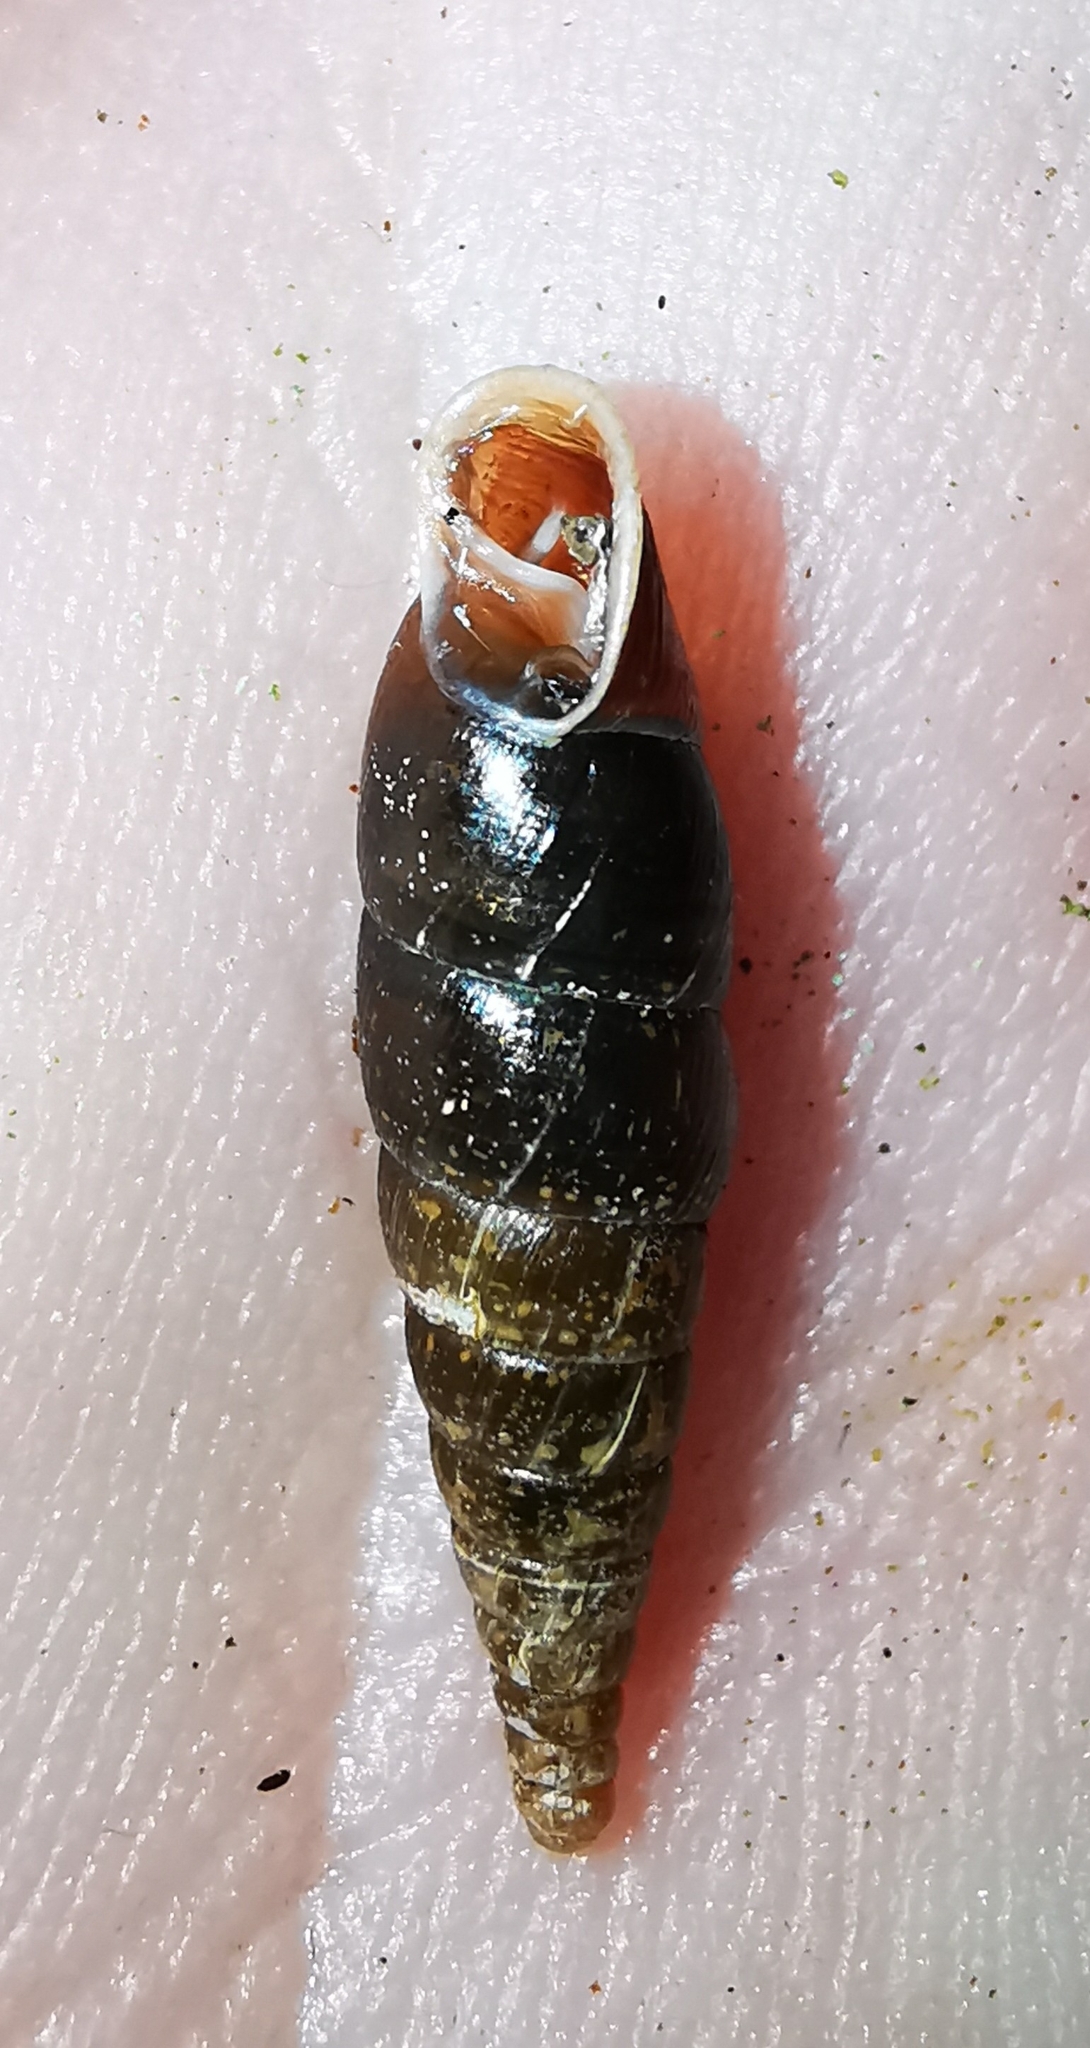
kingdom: Animalia
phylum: Mollusca
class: Gastropoda
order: Stylommatophora
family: Clausiliidae
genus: Cochlodina
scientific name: Cochlodina laminata
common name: Plaited door snail
